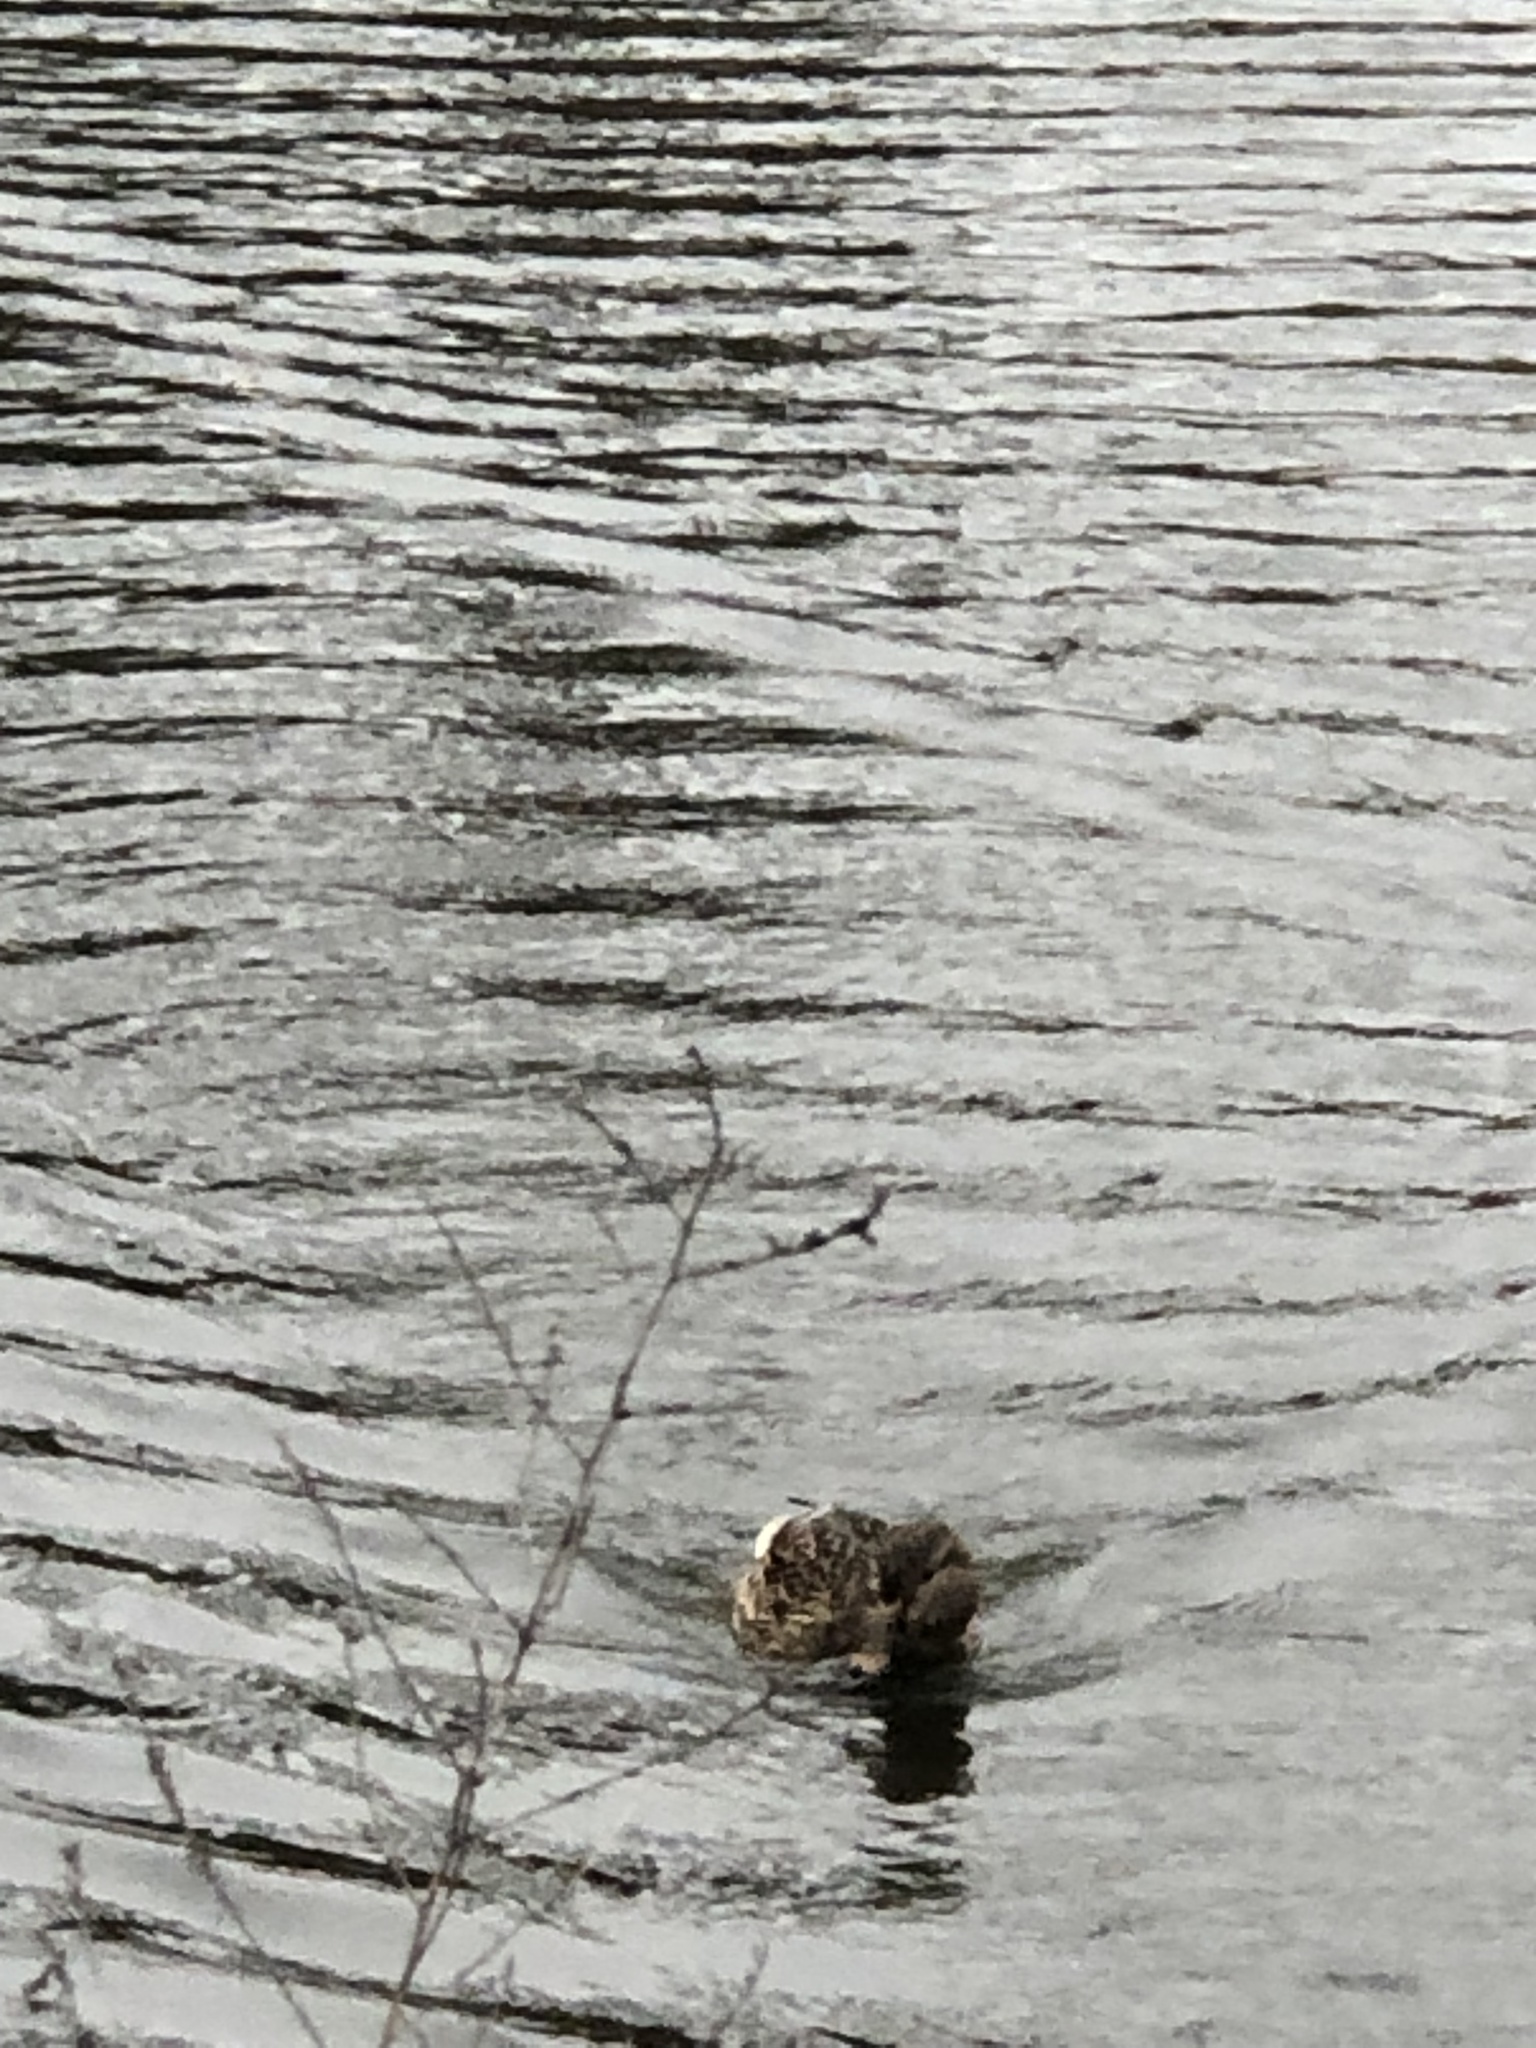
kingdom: Animalia
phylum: Chordata
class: Aves
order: Anseriformes
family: Anatidae
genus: Anas
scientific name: Anas platyrhynchos
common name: Mallard
